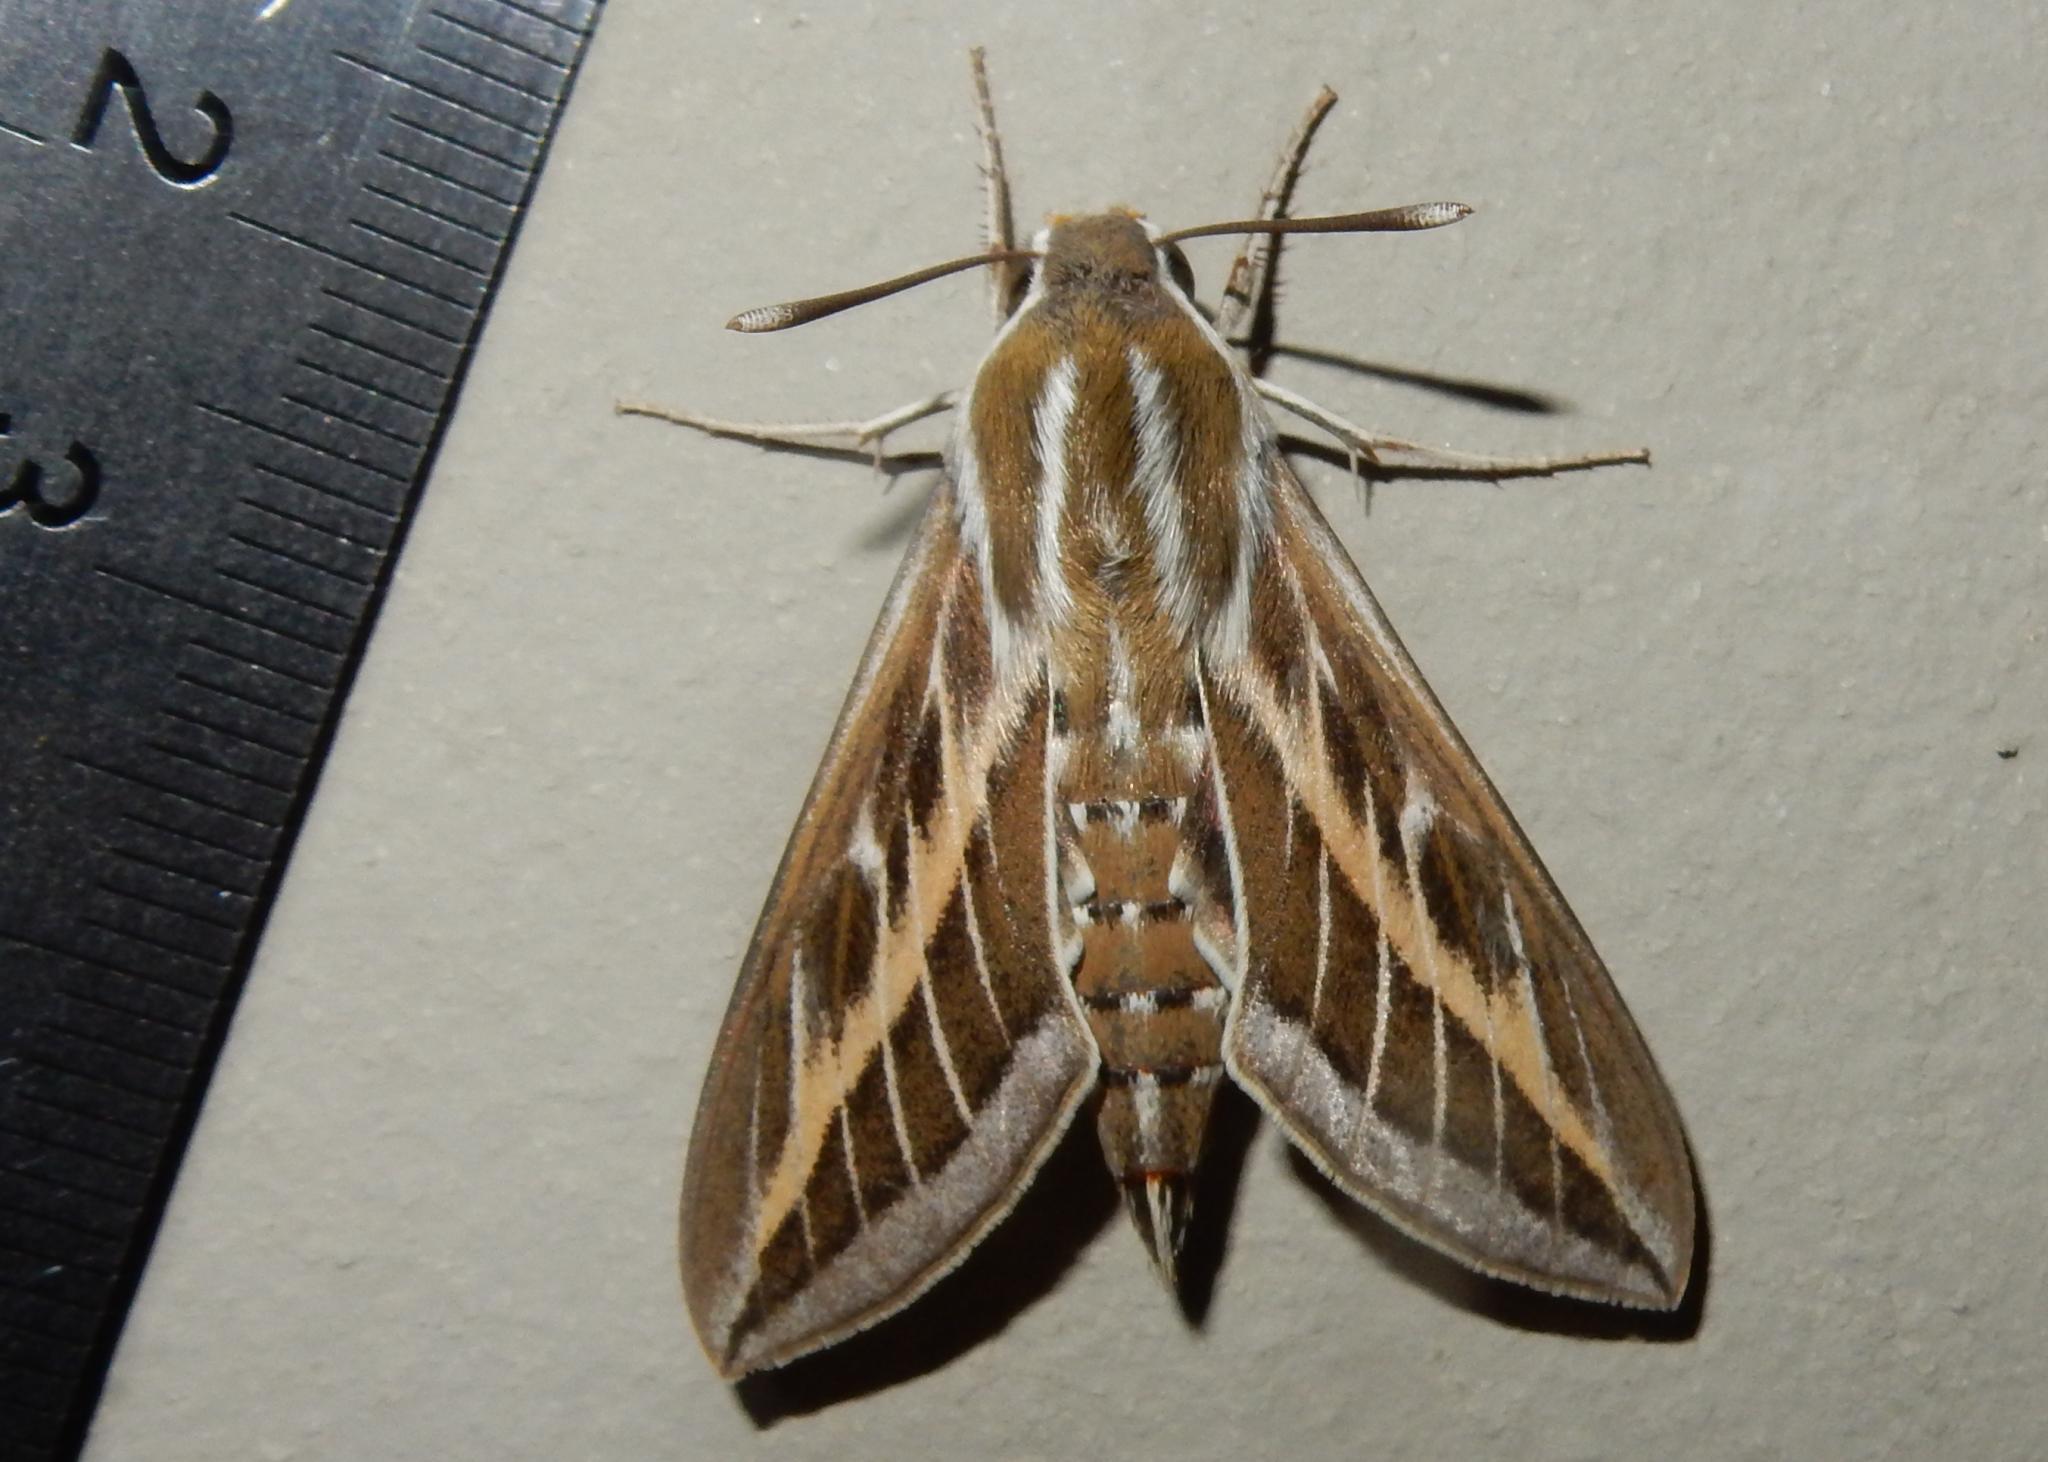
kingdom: Animalia
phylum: Arthropoda
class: Insecta
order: Lepidoptera
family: Sphingidae
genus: Hyles
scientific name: Hyles livornica
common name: Striped hawk-moth
